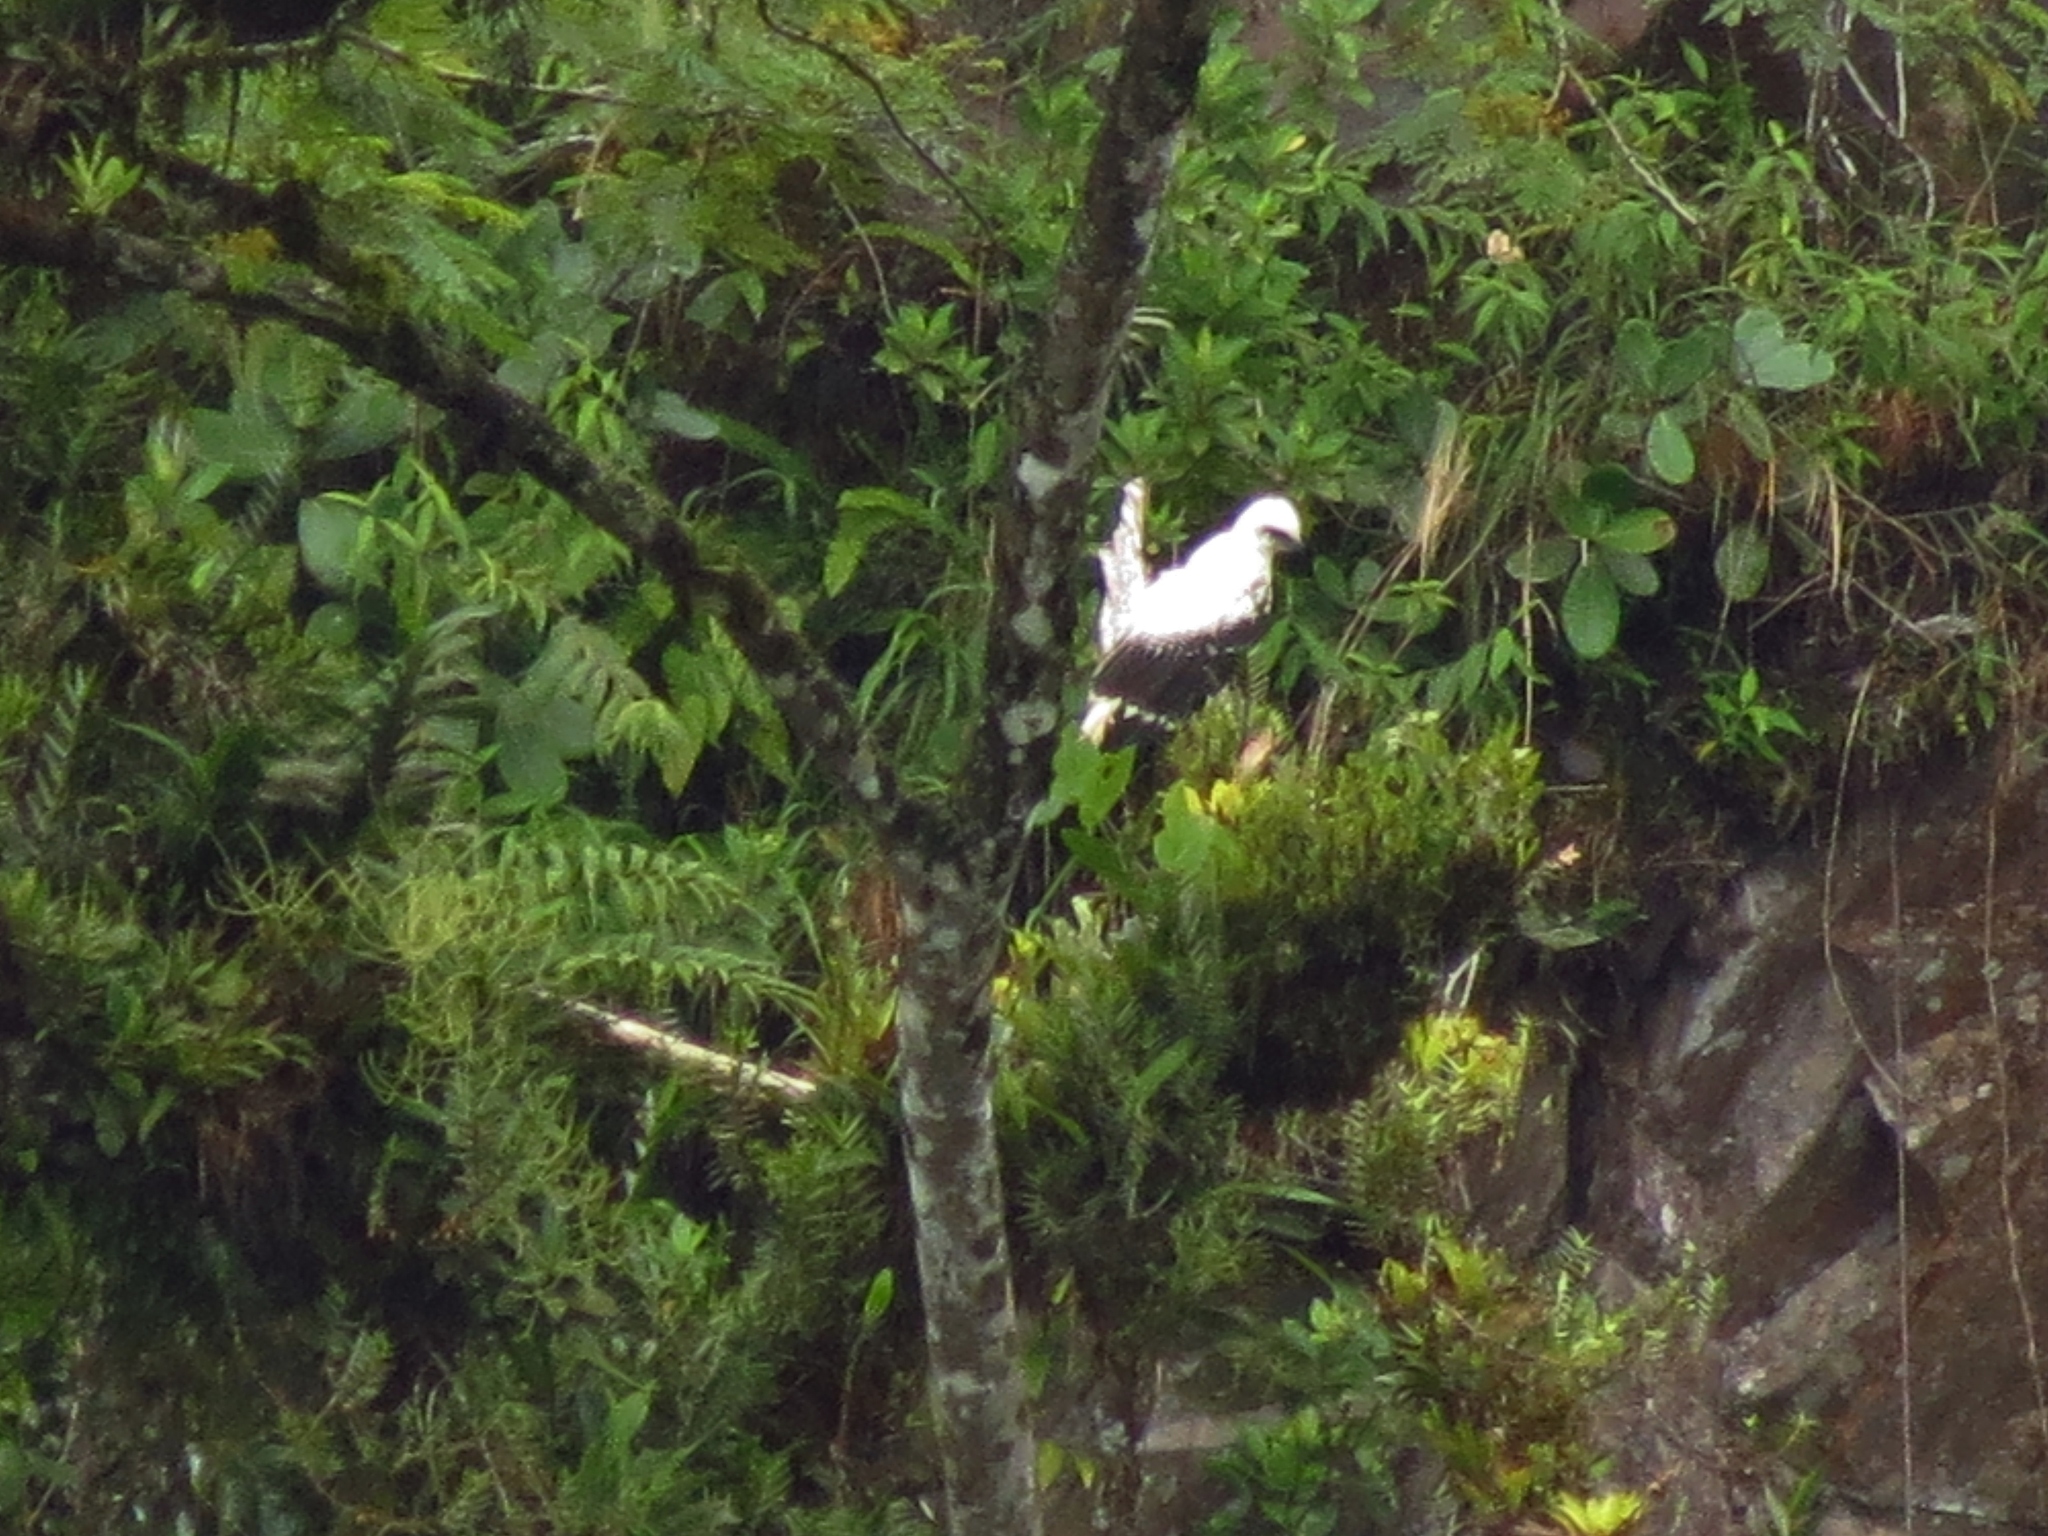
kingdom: Animalia
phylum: Chordata
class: Aves
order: Accipitriformes
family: Accipitridae
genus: Leucopternis
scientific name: Leucopternis albicollis
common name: White hawk
